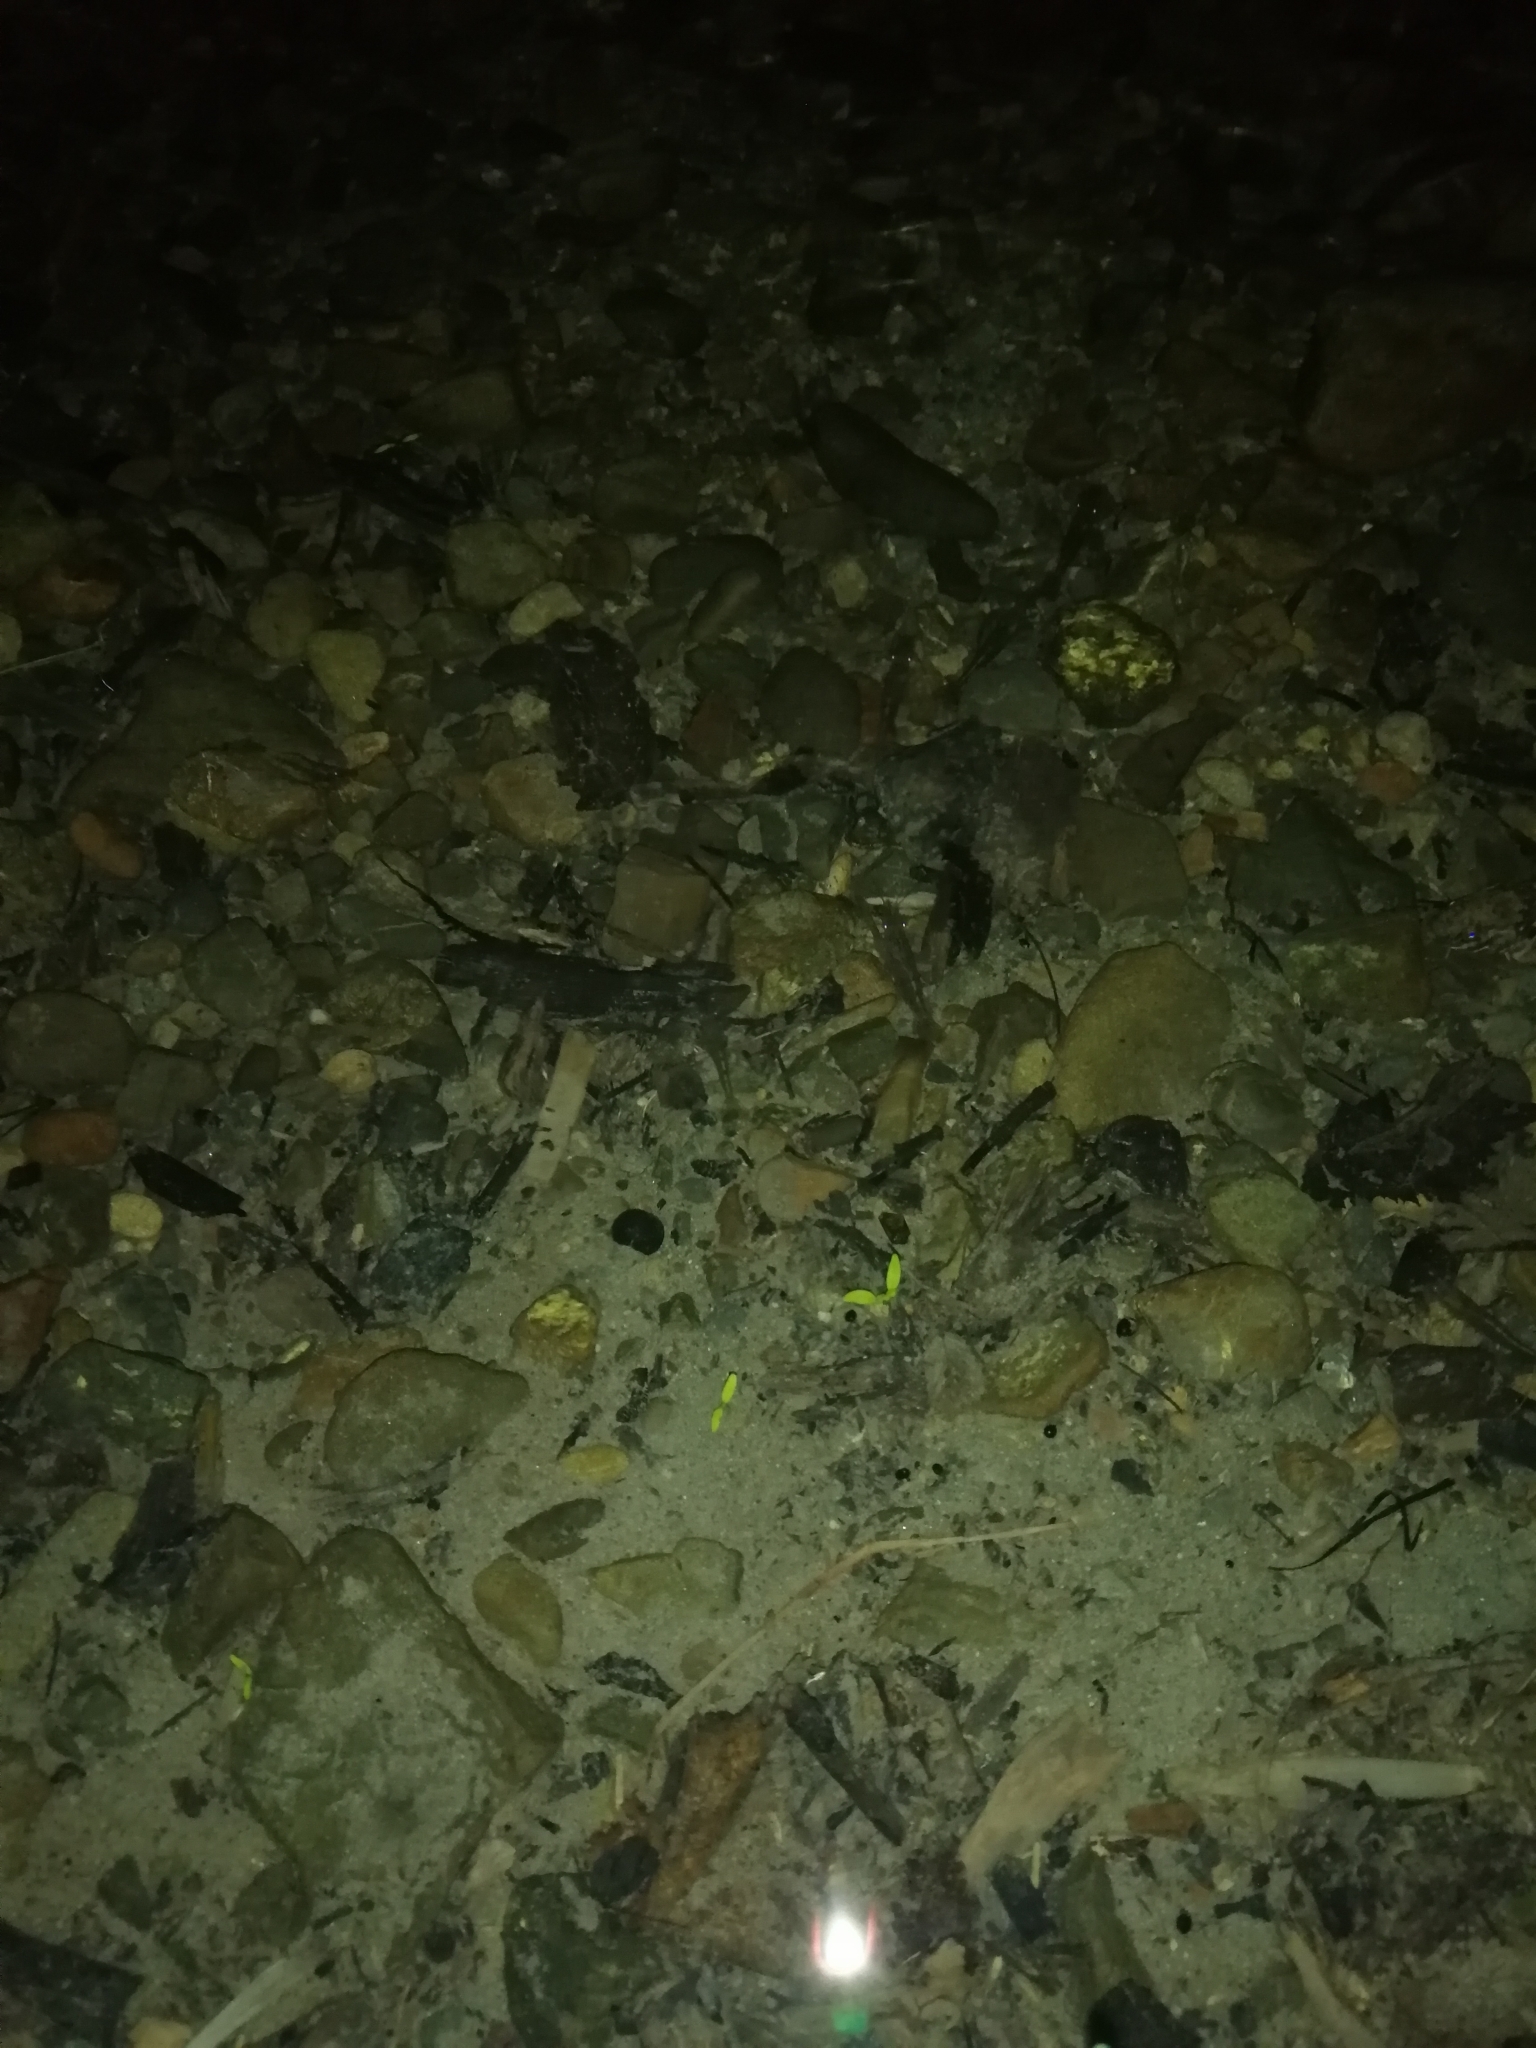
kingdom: Animalia
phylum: Arthropoda
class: Malacostraca
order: Decapoda
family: Atyidae
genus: Paratya
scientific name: Paratya curvirostris
